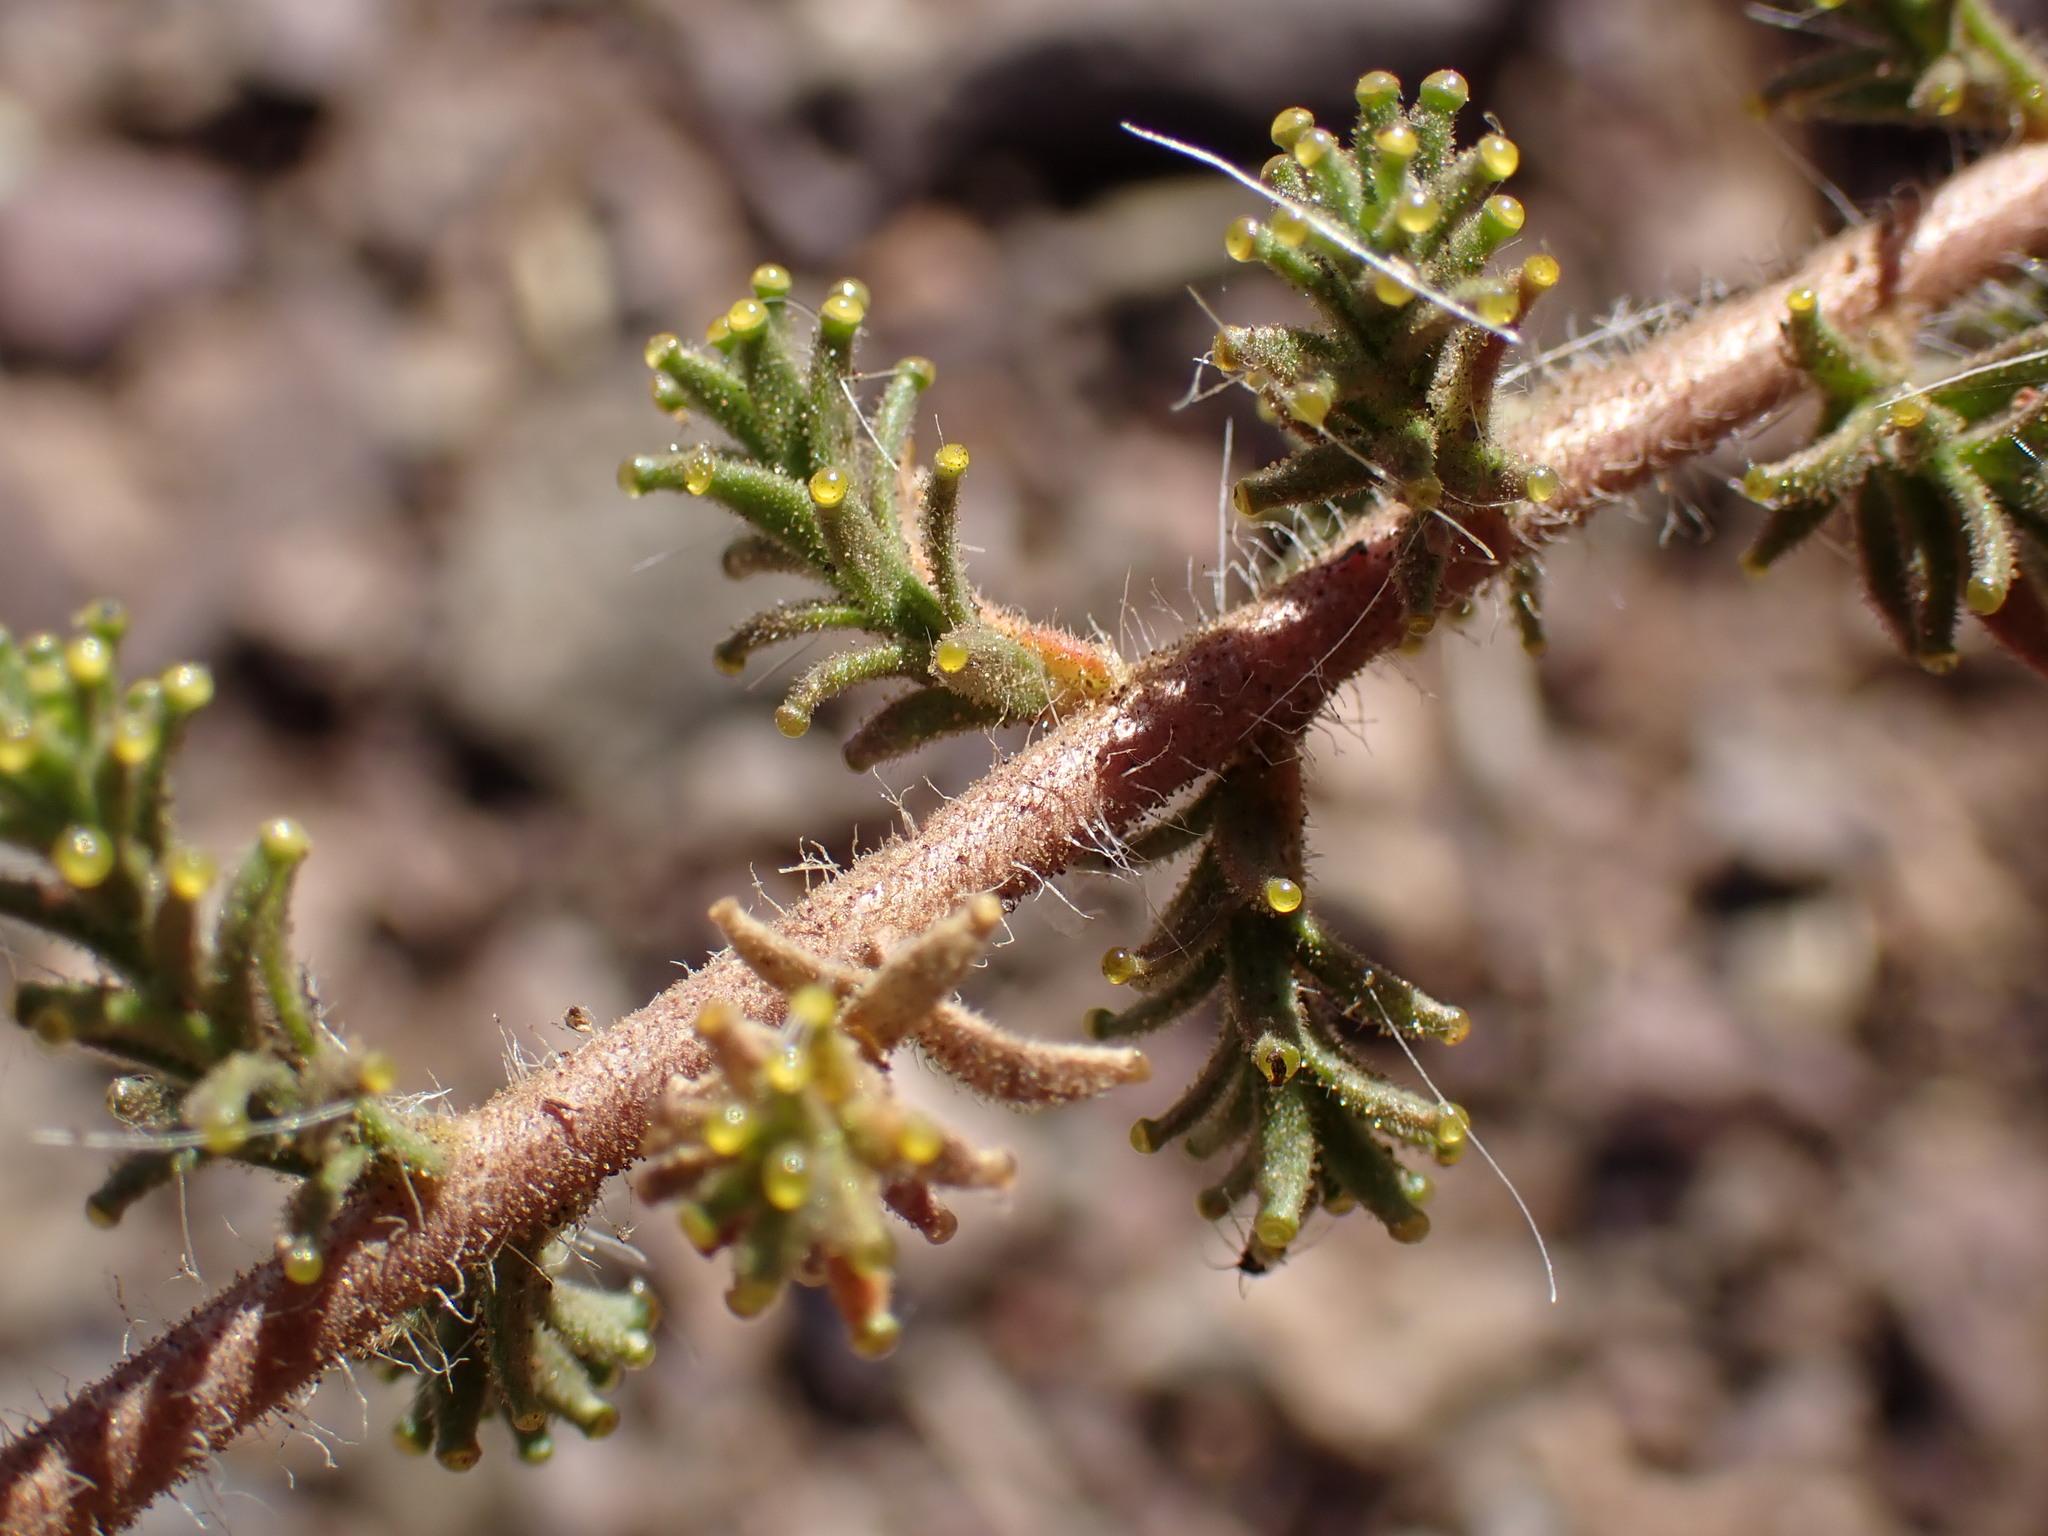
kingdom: Plantae
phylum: Tracheophyta
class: Magnoliopsida
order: Asterales
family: Asteraceae
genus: Holocarpha
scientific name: Holocarpha heermannii
